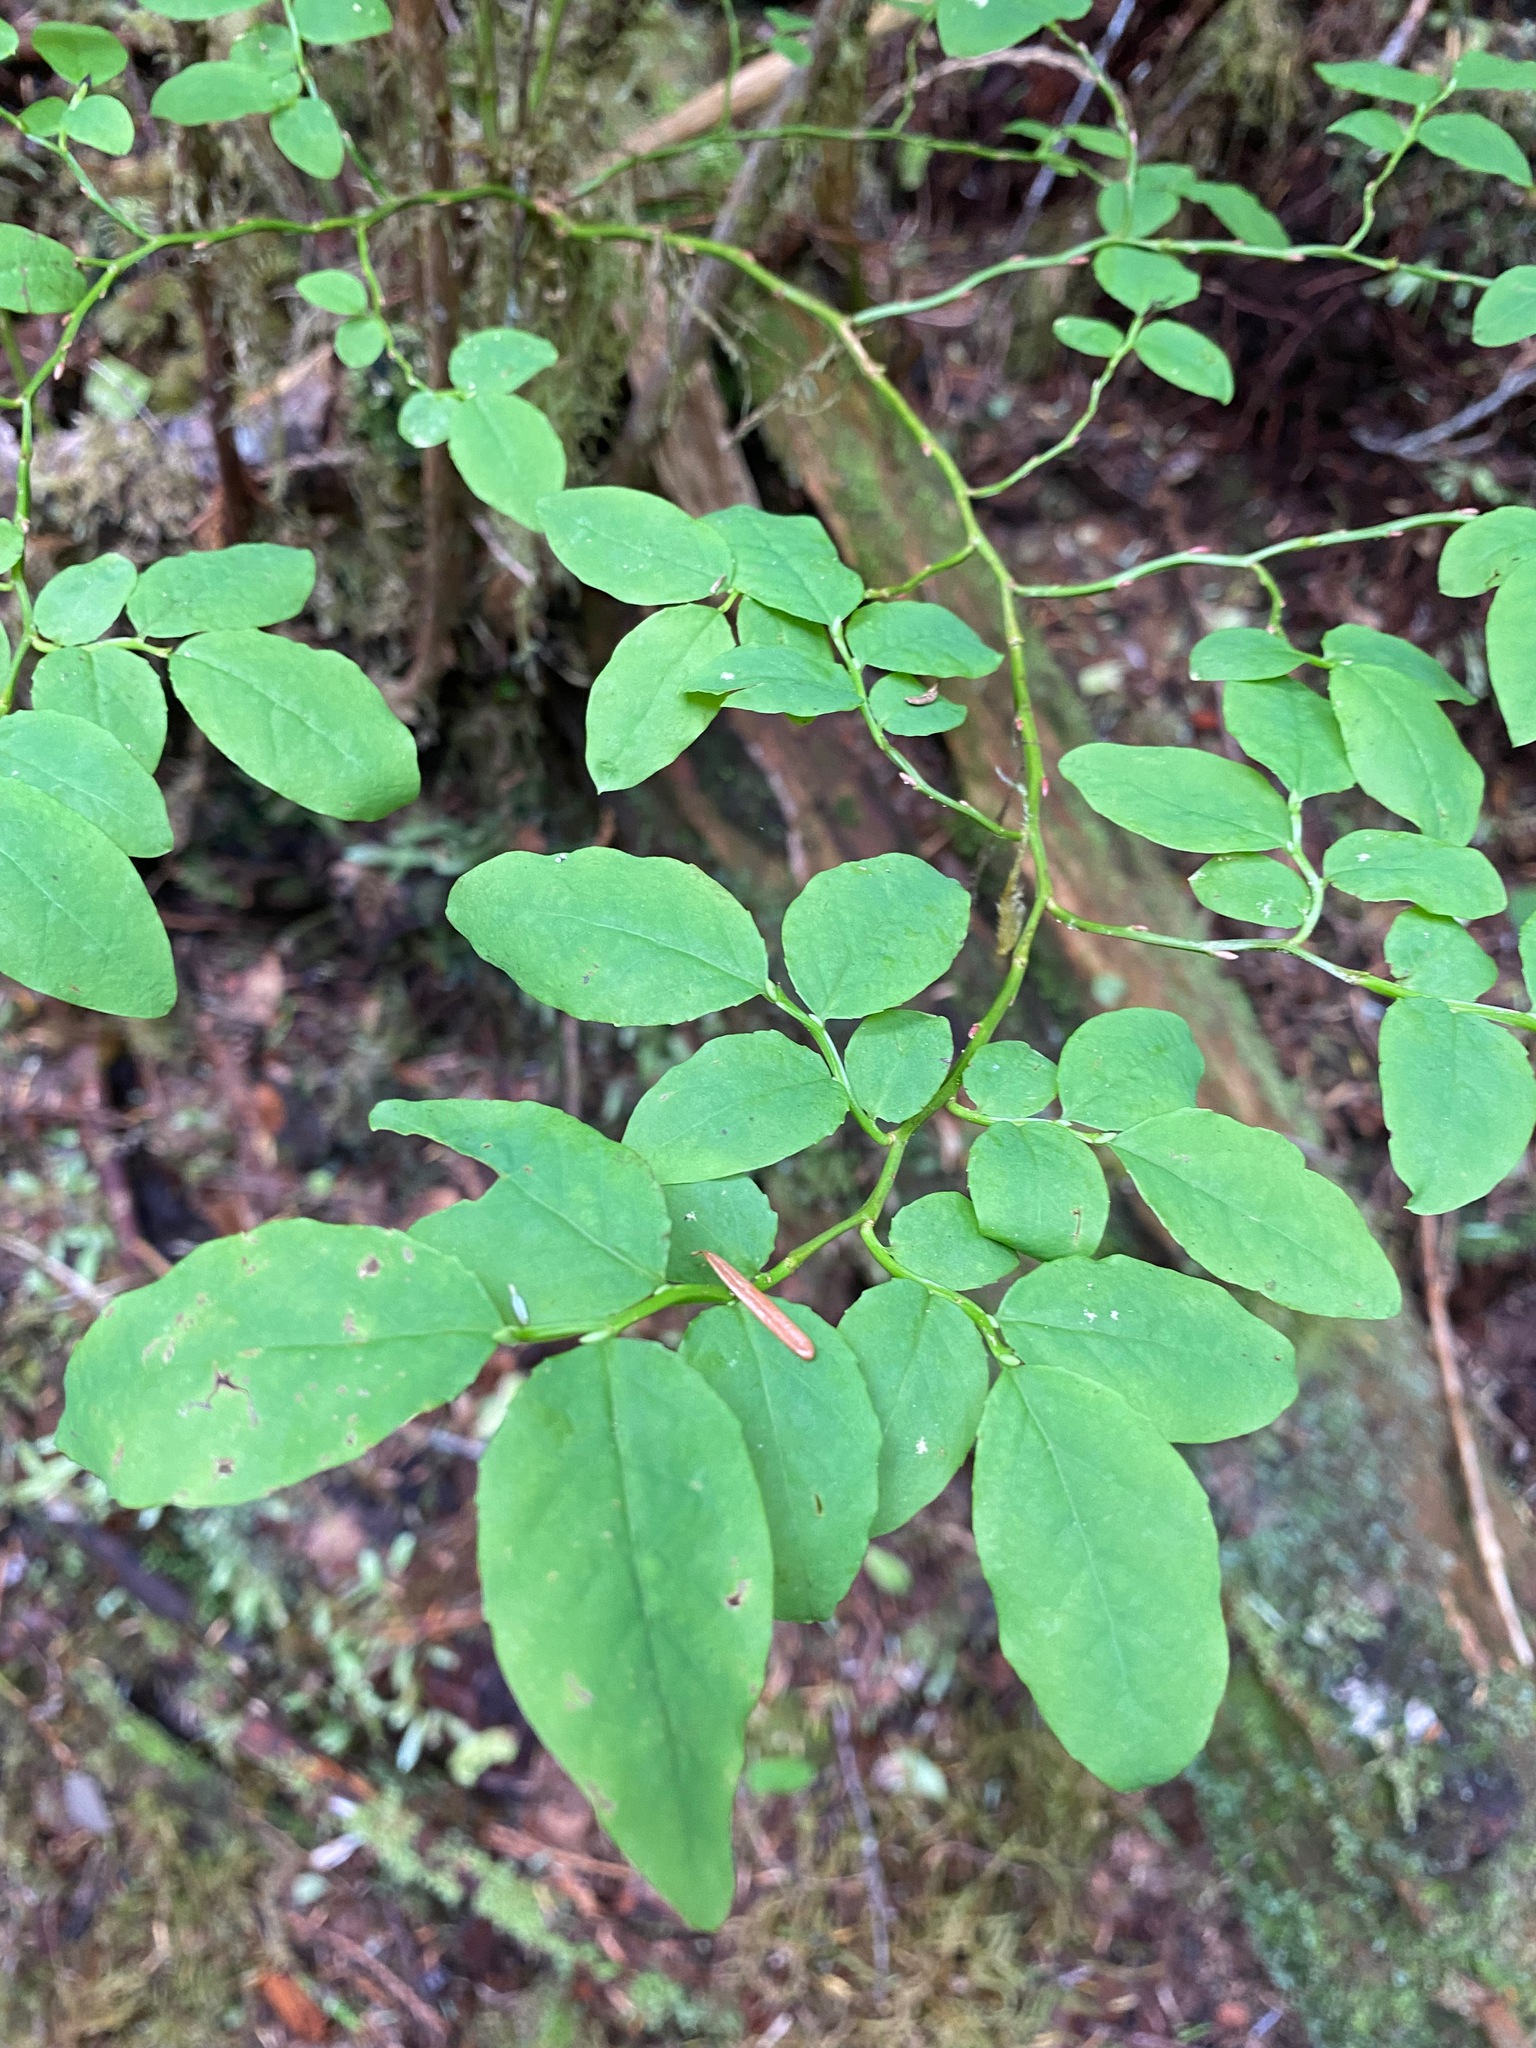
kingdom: Plantae
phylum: Tracheophyta
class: Magnoliopsida
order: Ericales
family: Ericaceae
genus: Vaccinium
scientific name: Vaccinium ovalifolium
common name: Early blueberry
